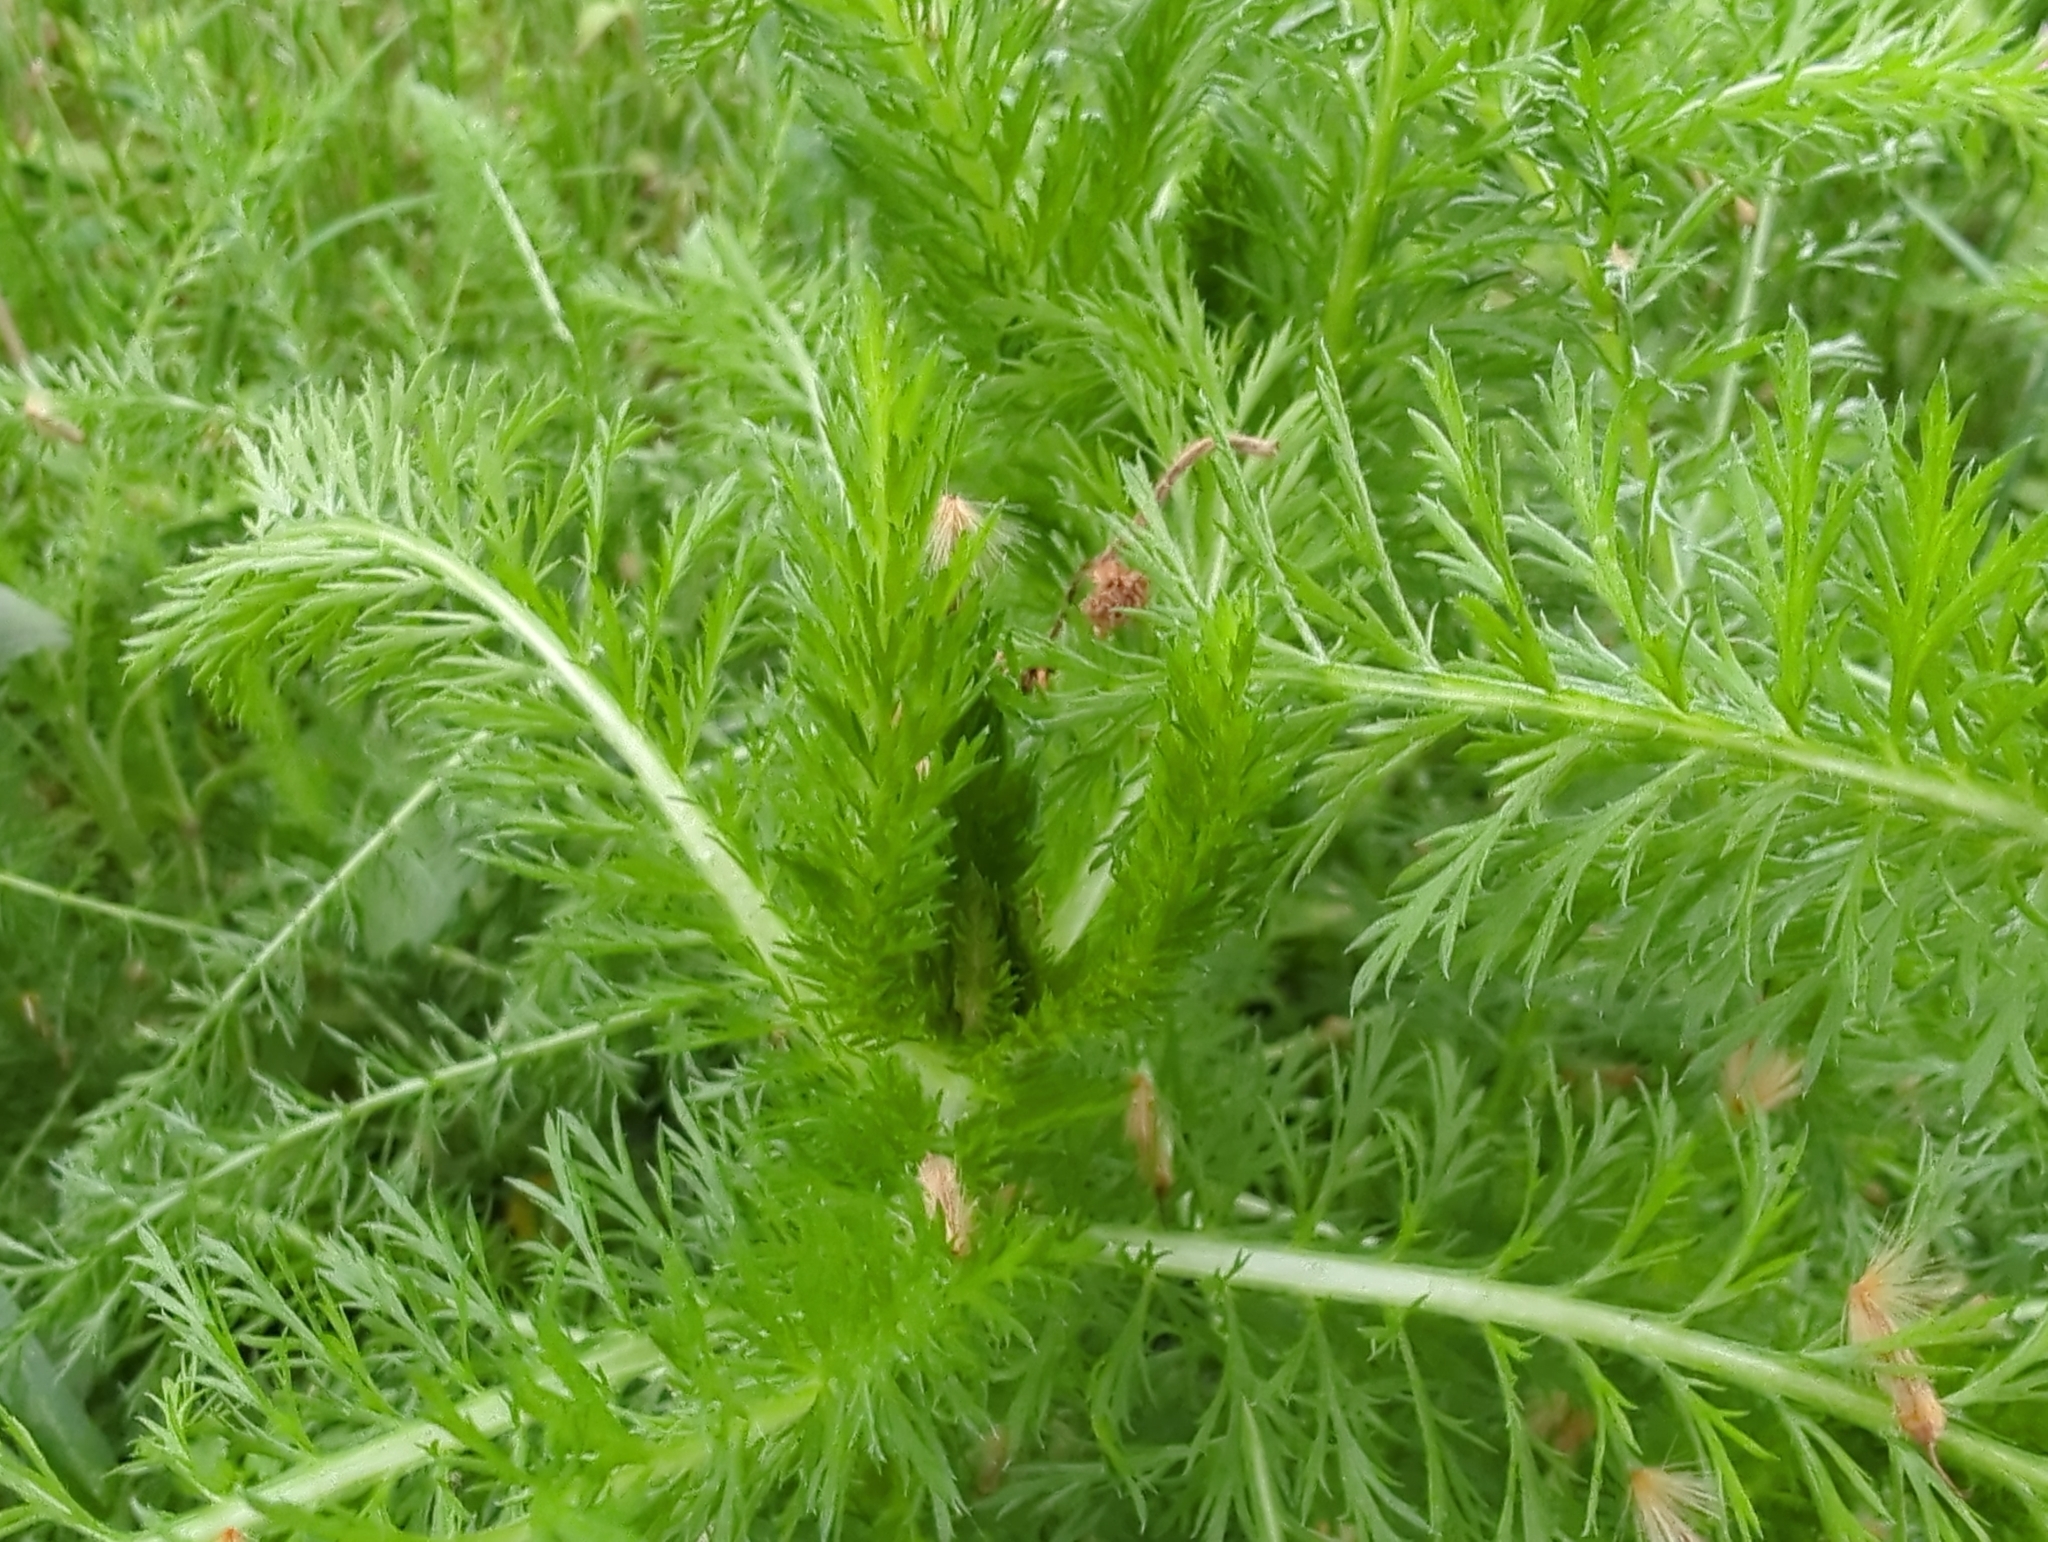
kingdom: Plantae
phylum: Tracheophyta
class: Magnoliopsida
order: Asterales
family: Asteraceae
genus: Achillea
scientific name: Achillea millefolium
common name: Yarrow
